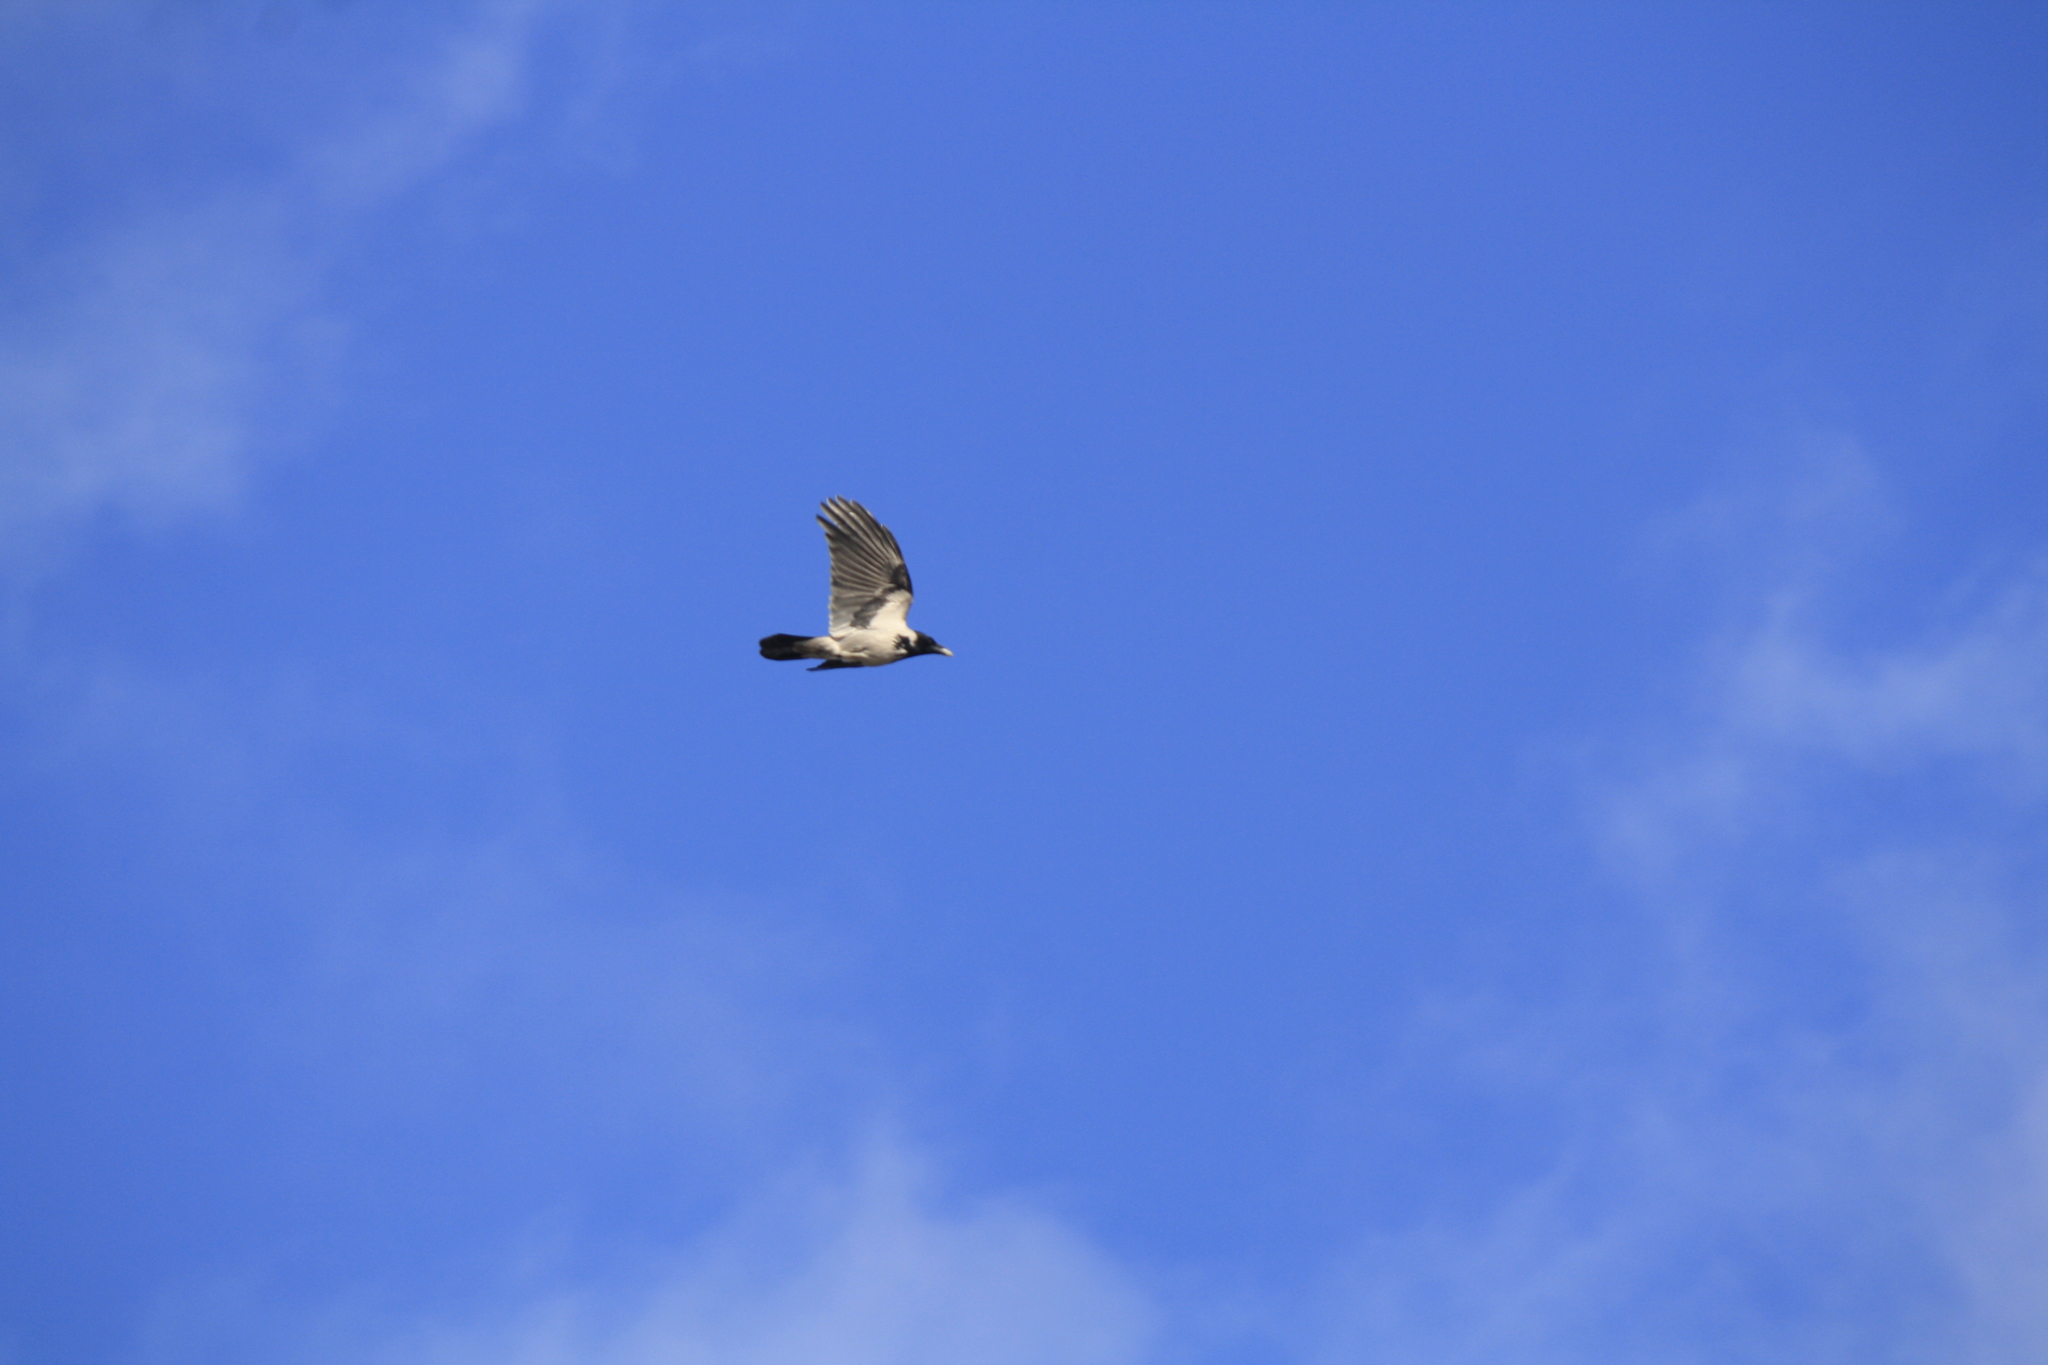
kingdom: Animalia
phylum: Chordata
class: Aves
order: Passeriformes
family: Corvidae
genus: Corvus
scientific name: Corvus cornix
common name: Hooded crow
